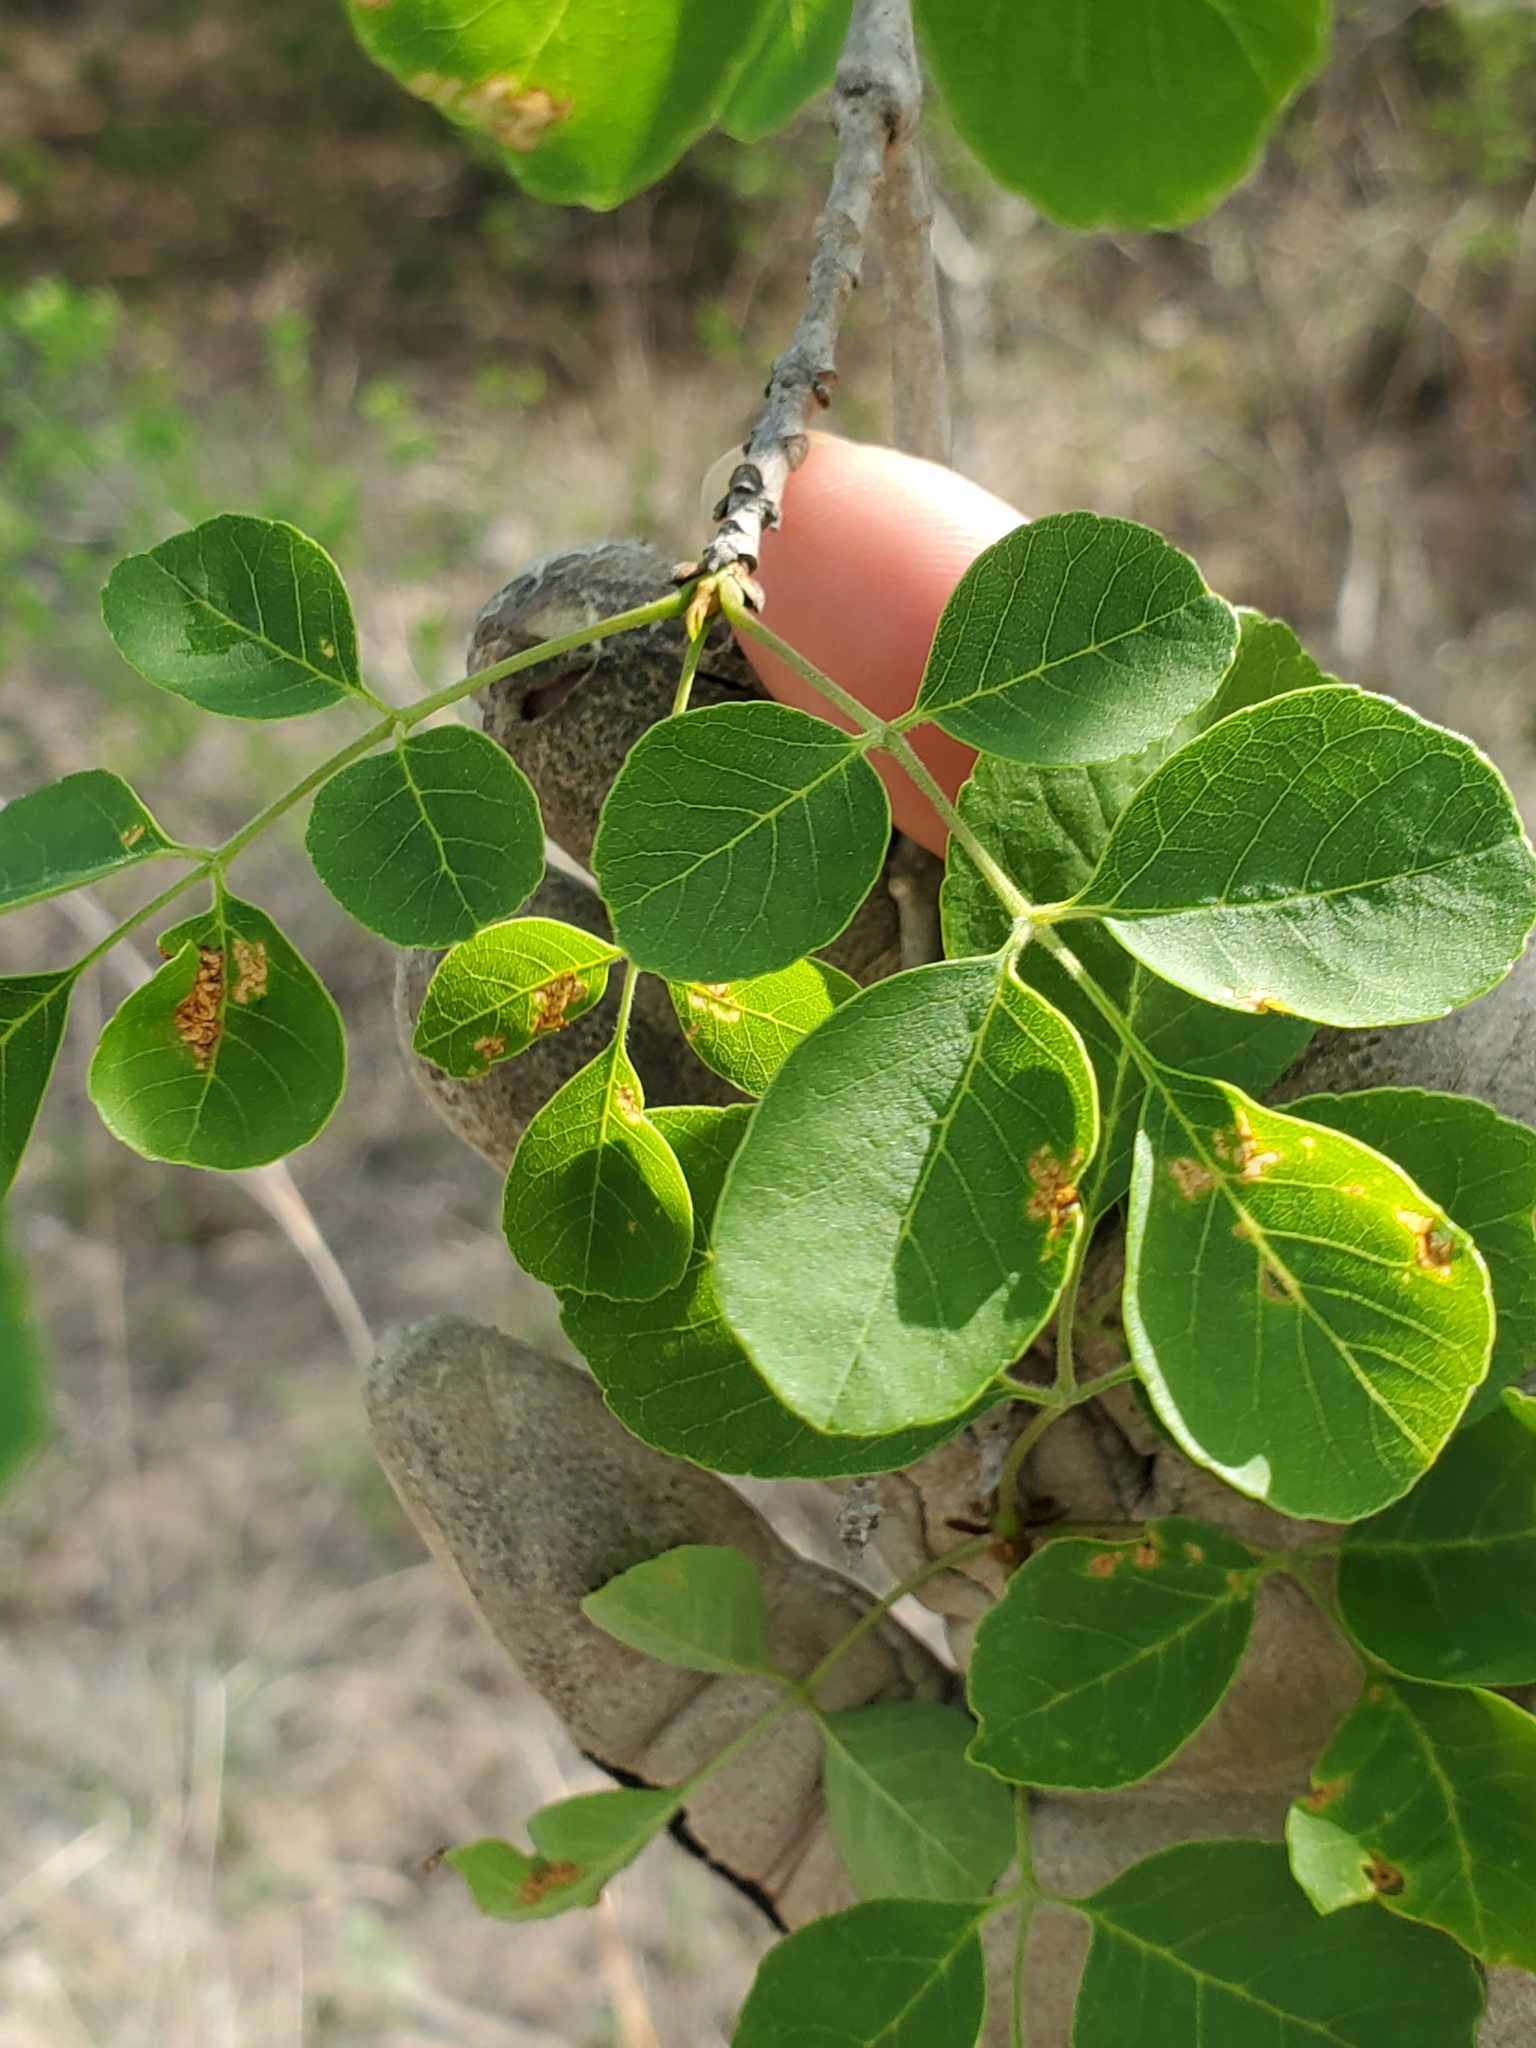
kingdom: Plantae
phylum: Tracheophyta
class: Magnoliopsida
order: Lamiales
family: Oleaceae
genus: Fraxinus
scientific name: Fraxinus albicans
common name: Texas ash
